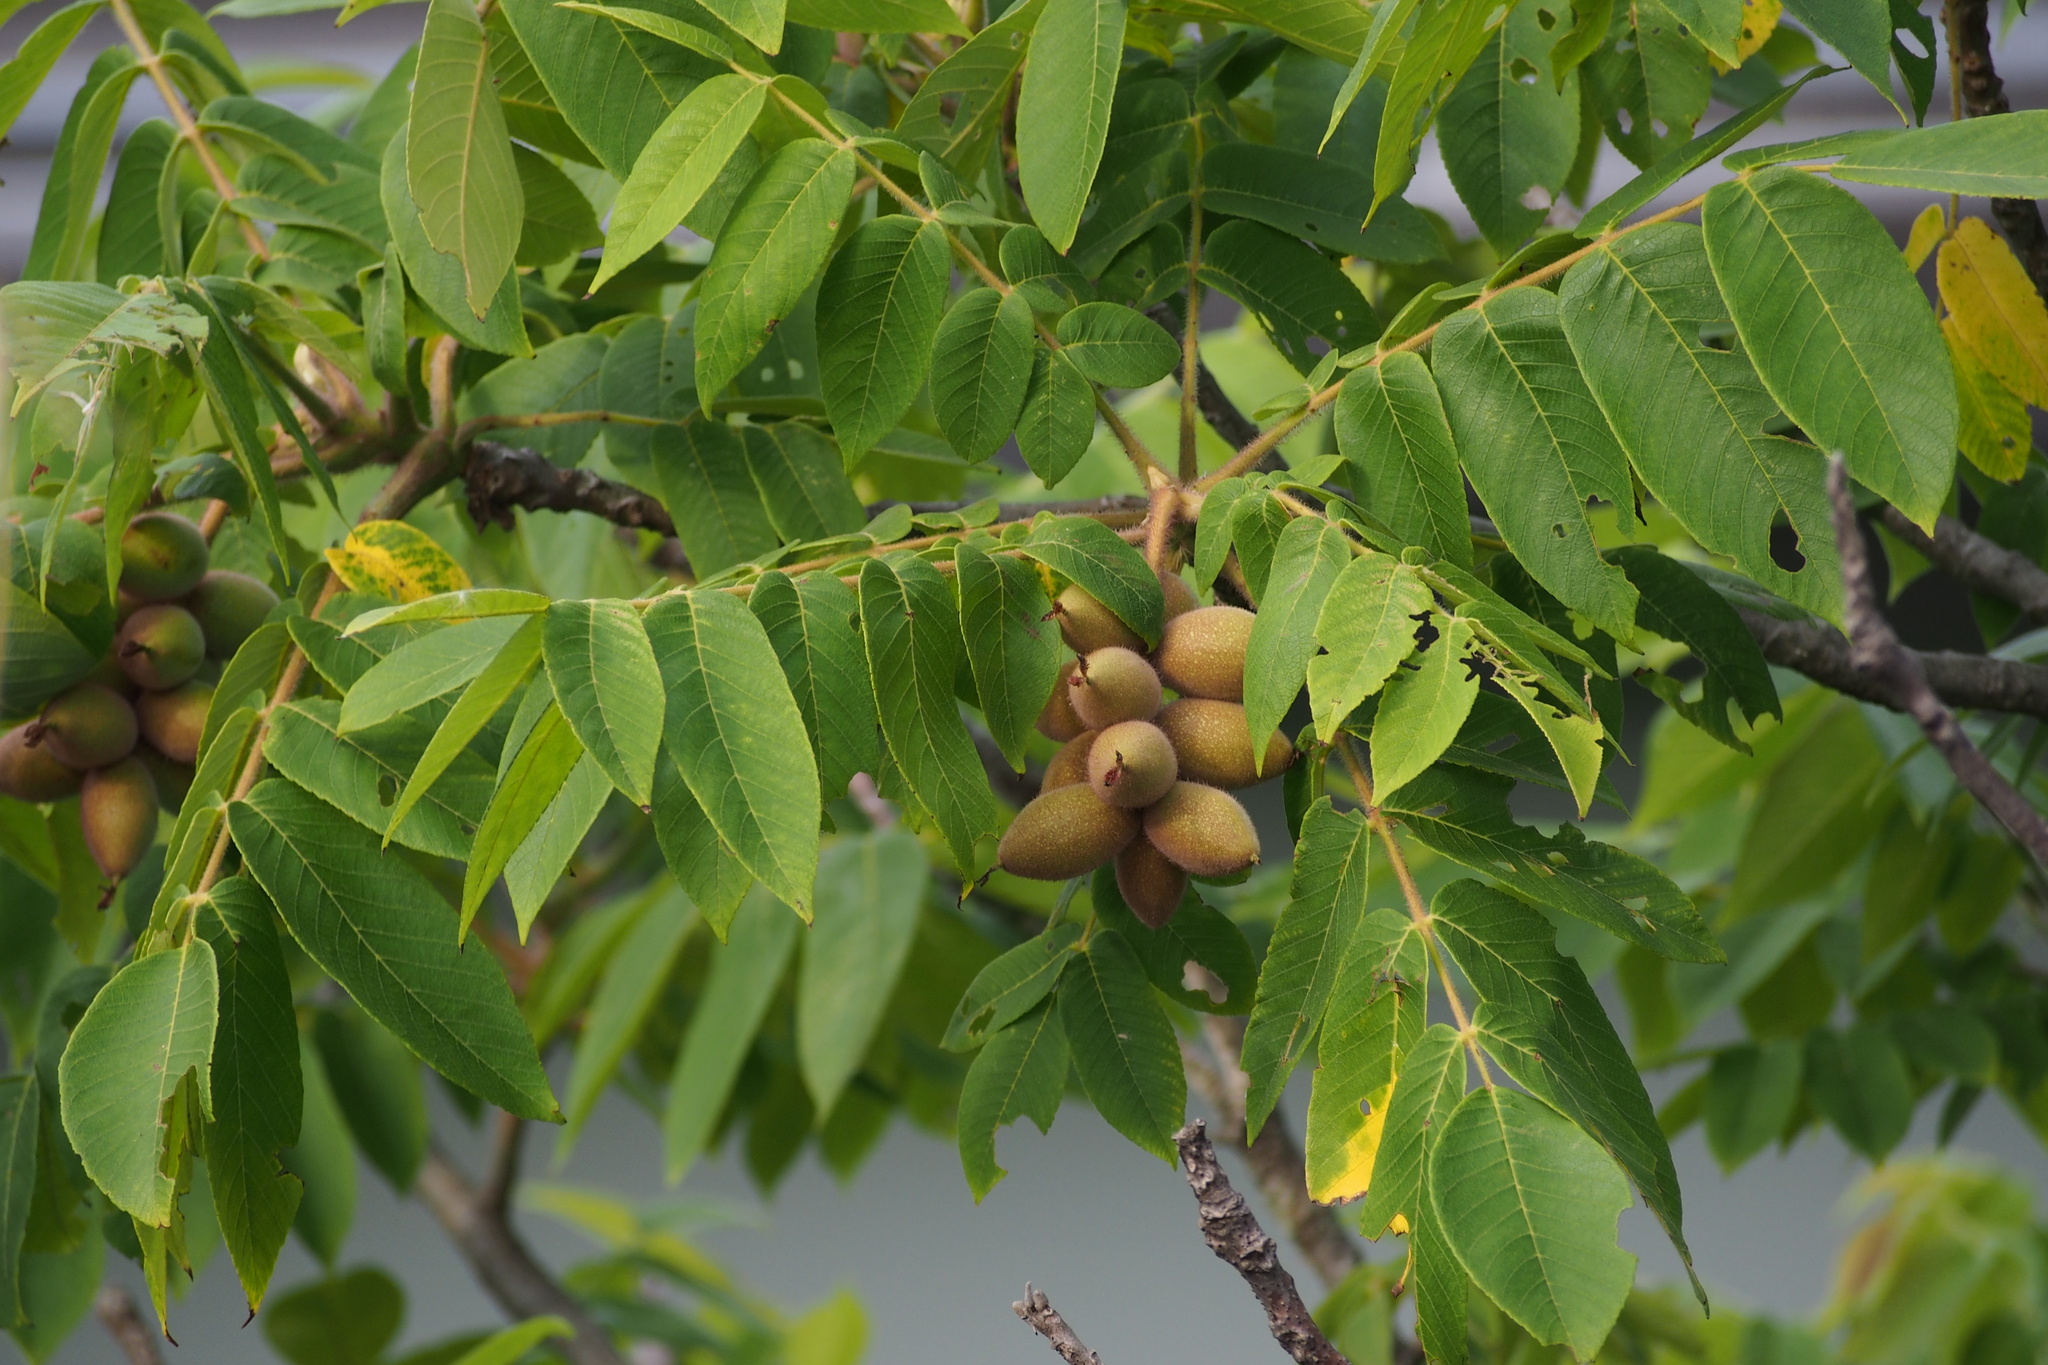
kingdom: Plantae
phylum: Tracheophyta
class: Magnoliopsida
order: Fagales
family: Juglandaceae
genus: Juglans
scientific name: Juglans ailantifolia
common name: Japanese walnut
